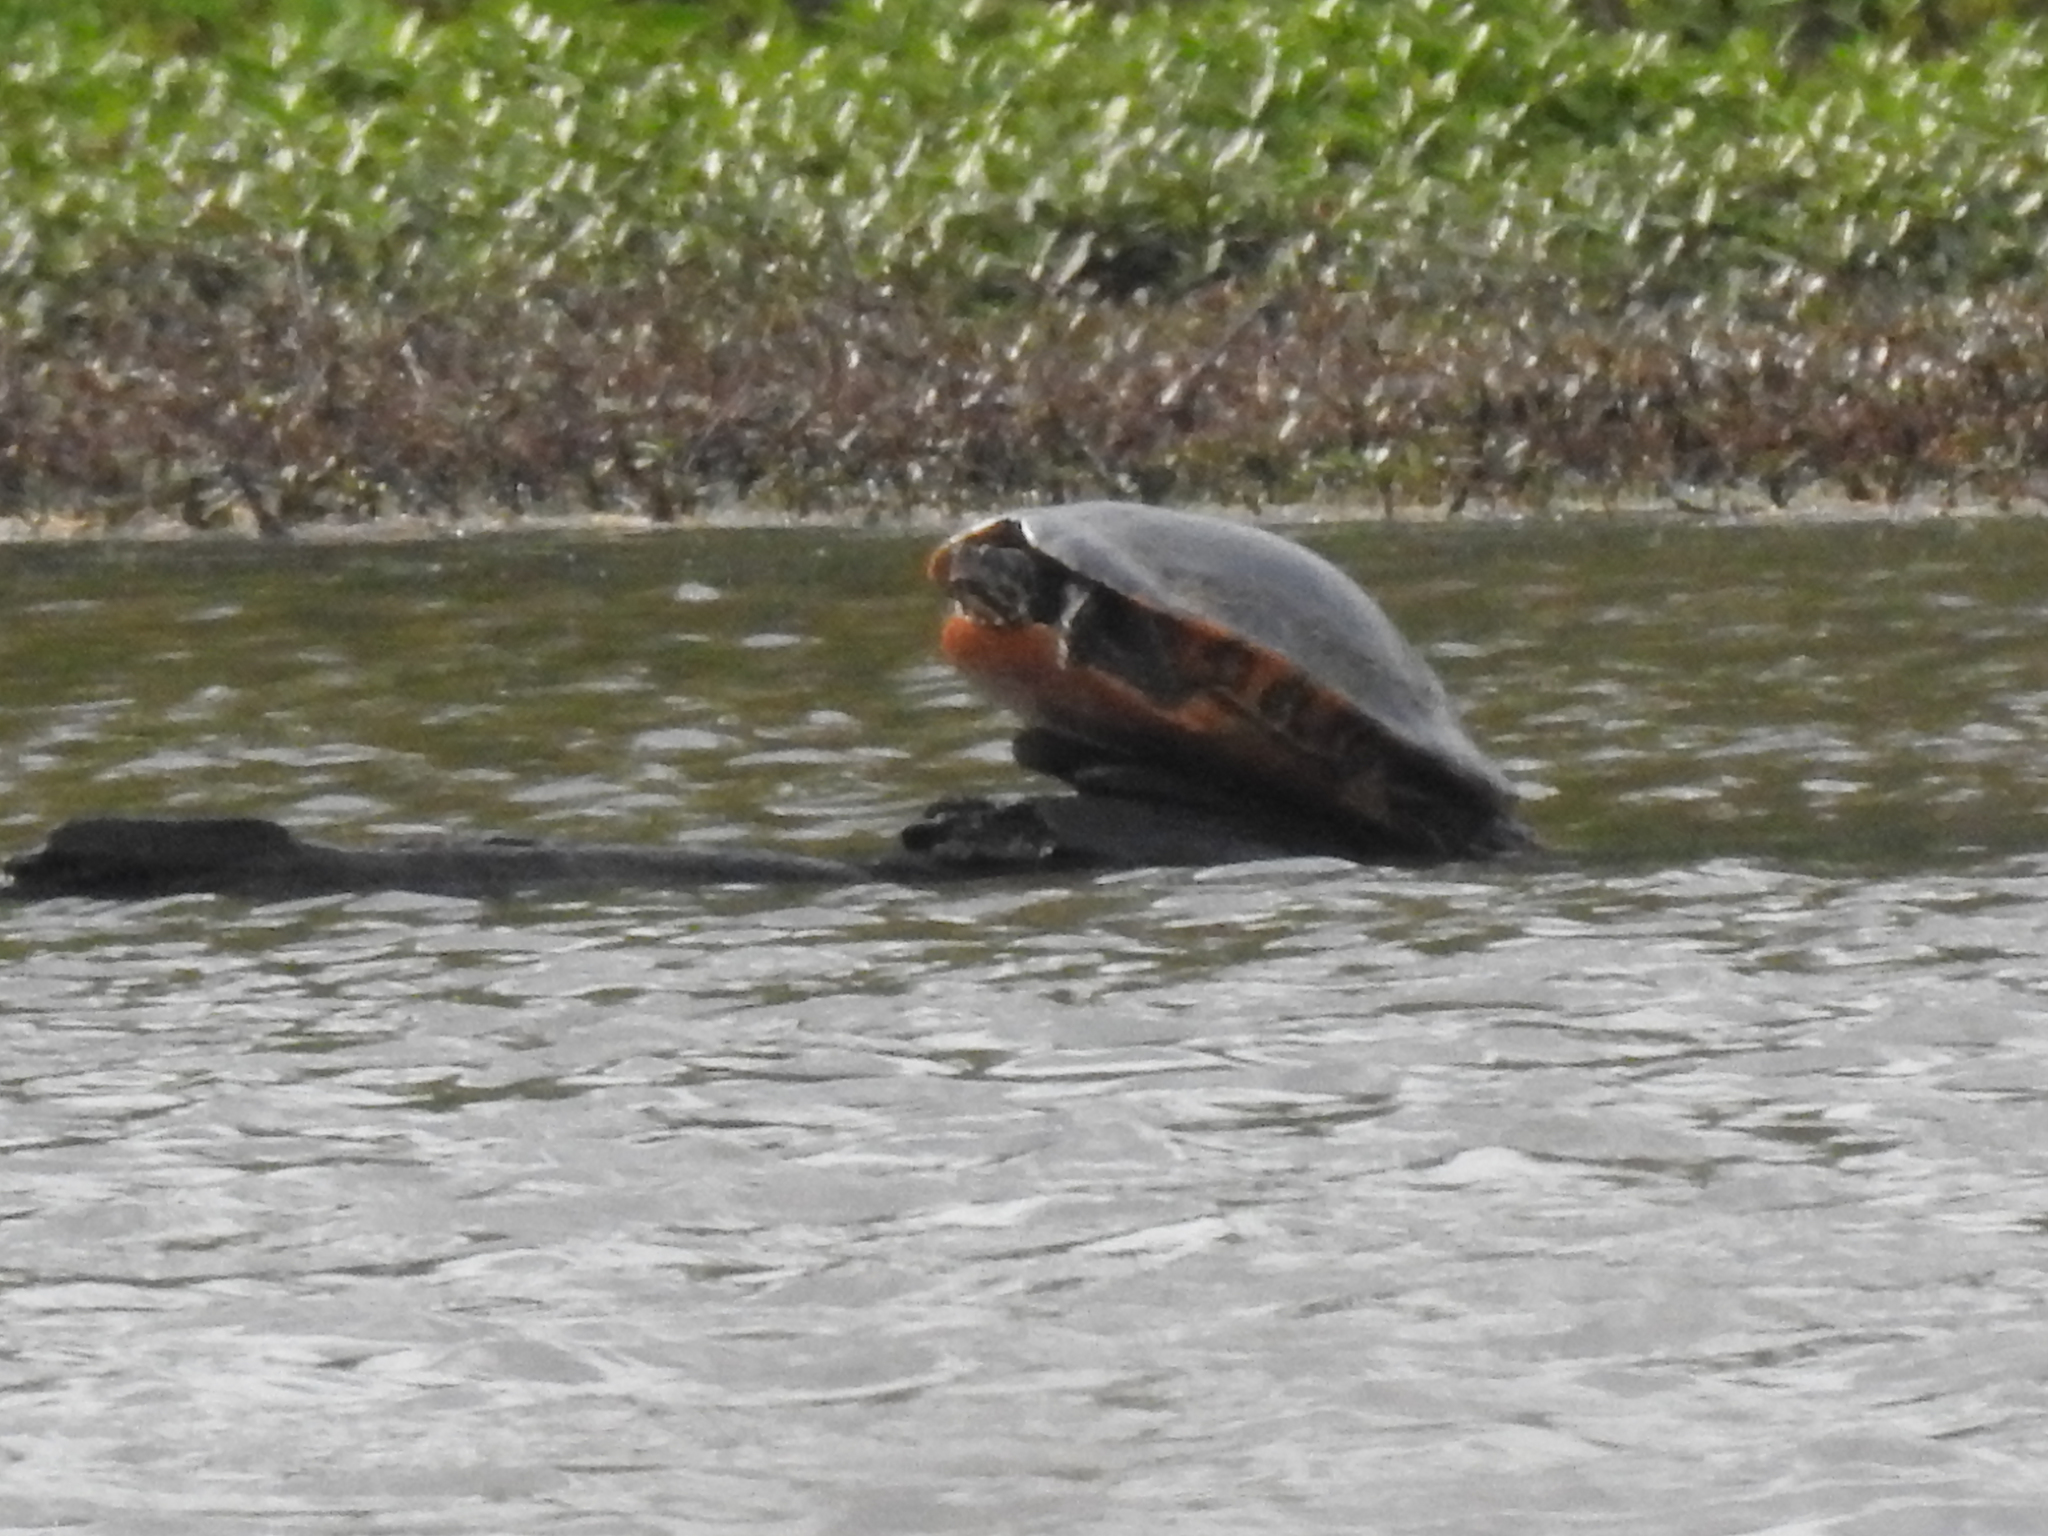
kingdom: Animalia
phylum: Chordata
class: Testudines
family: Emydidae
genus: Pseudemys
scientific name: Pseudemys concinna
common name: Eastern river cooter
